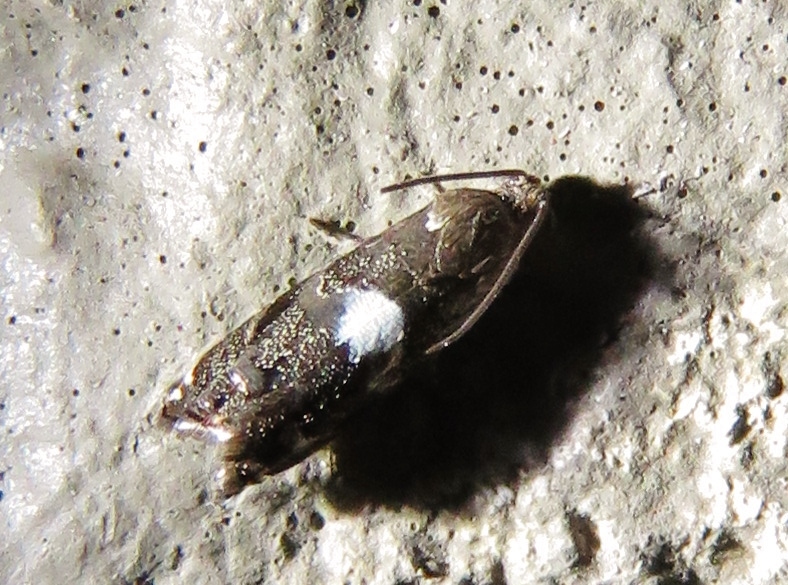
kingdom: Animalia
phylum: Arthropoda
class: Insecta
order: Lepidoptera
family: Tortricidae
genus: Cydia
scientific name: Cydia albimaculana
